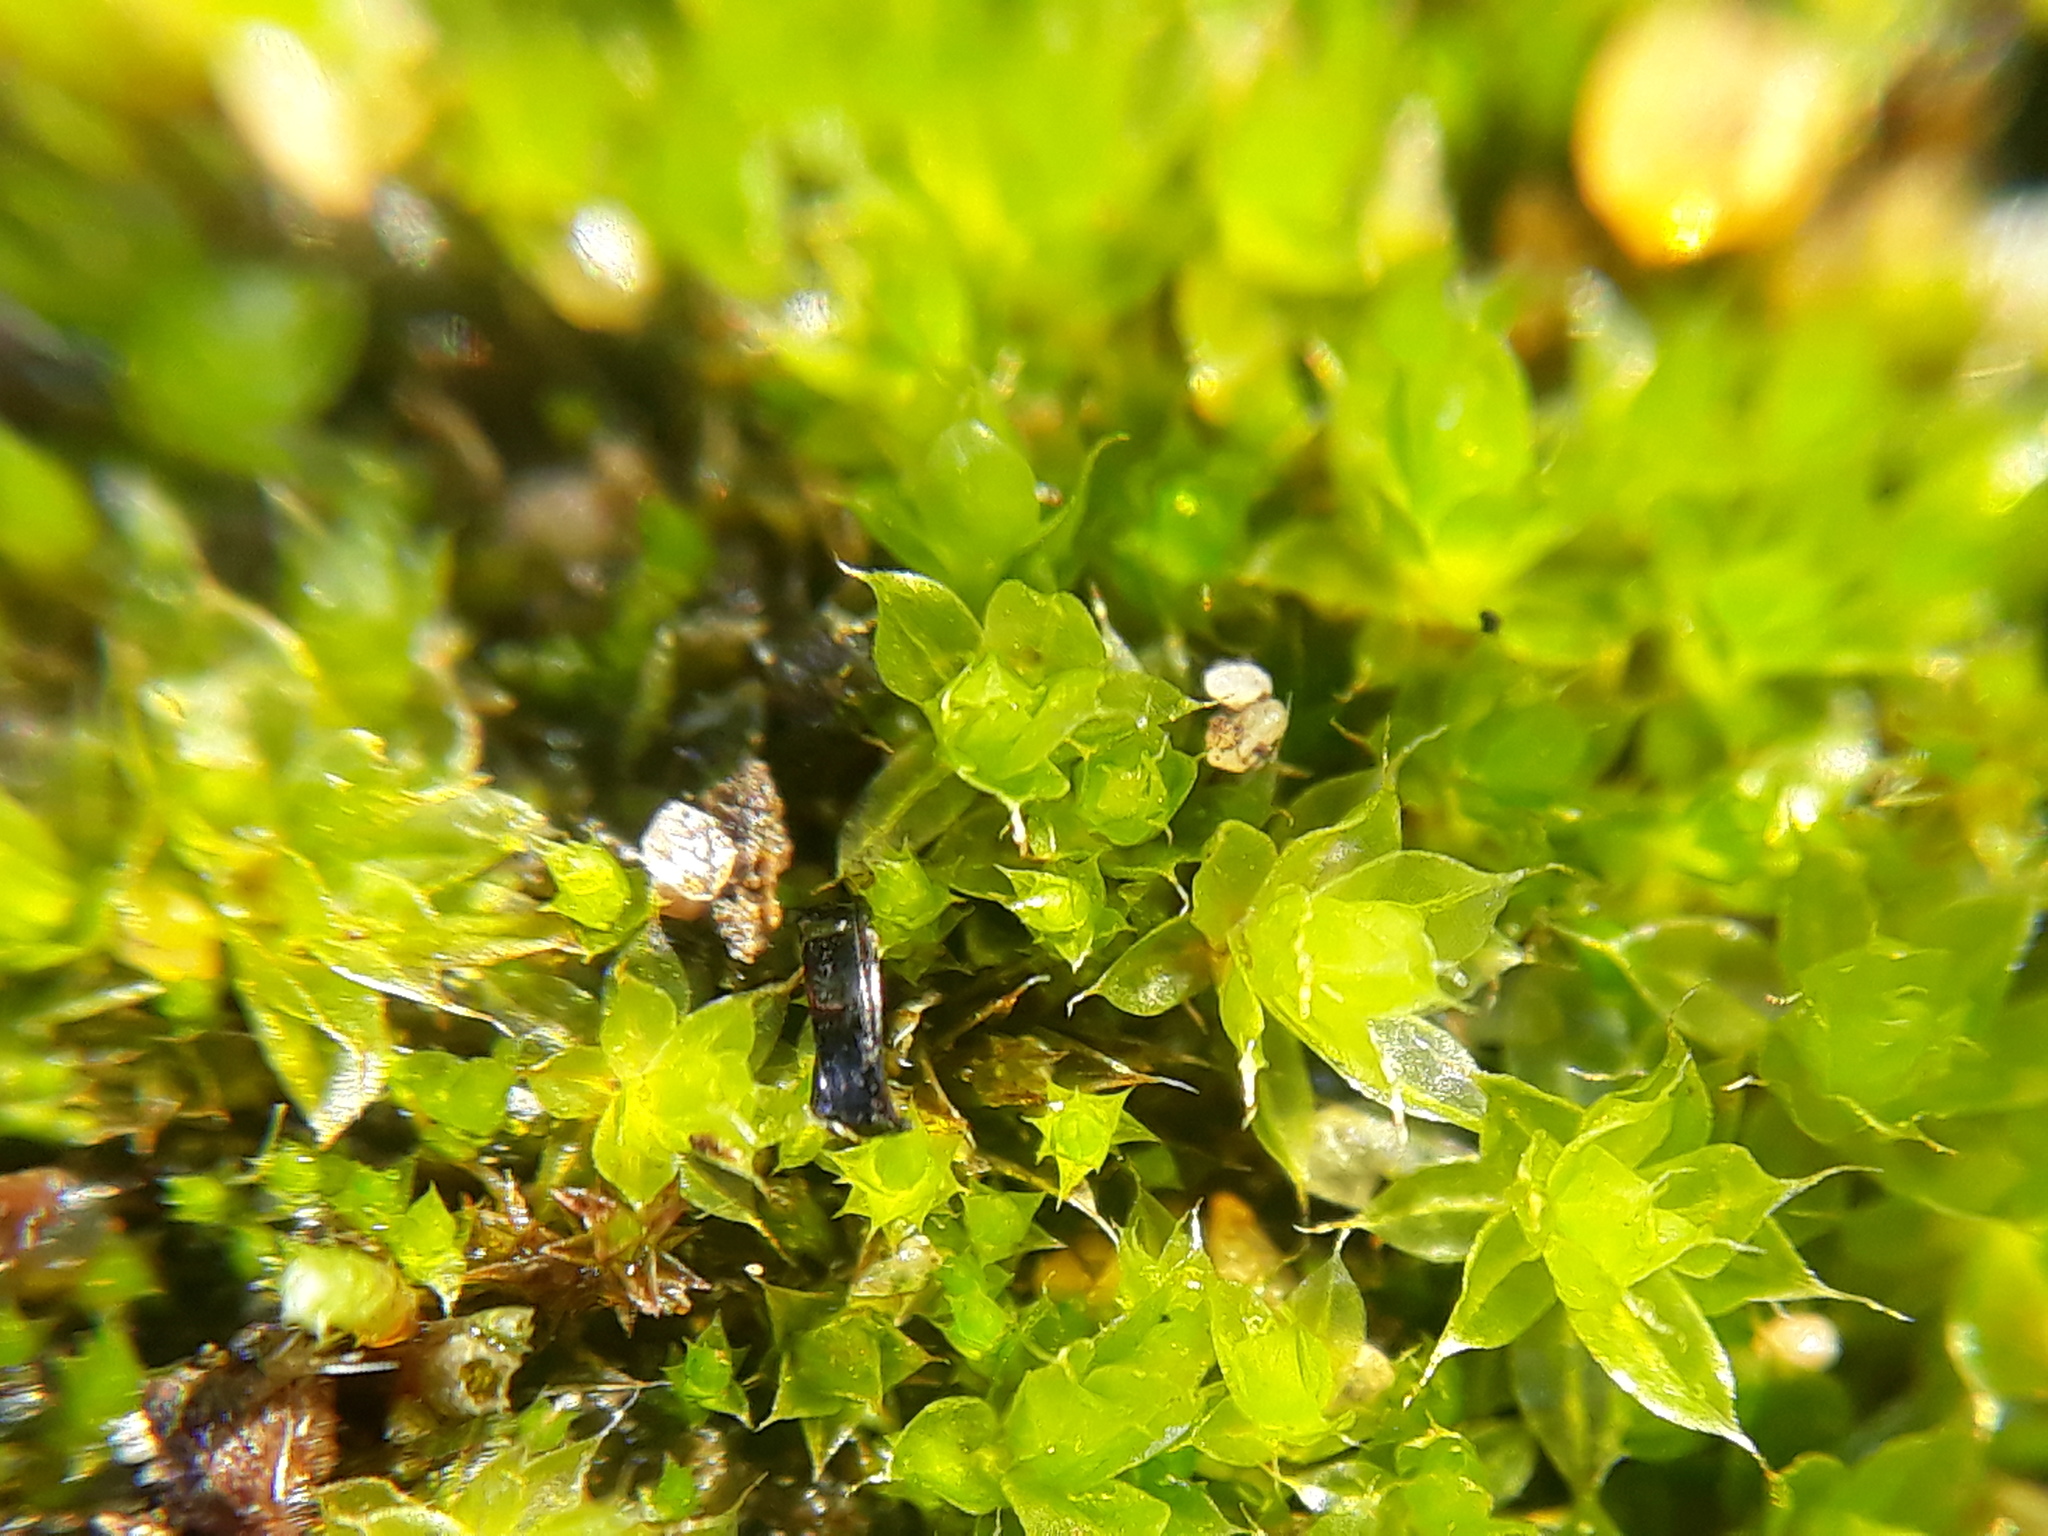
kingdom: Plantae
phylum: Bryophyta
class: Bryopsida
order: Bryales
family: Bryaceae
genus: Rosulabryum
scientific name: Rosulabryum capillare
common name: Capillary thread-moss
